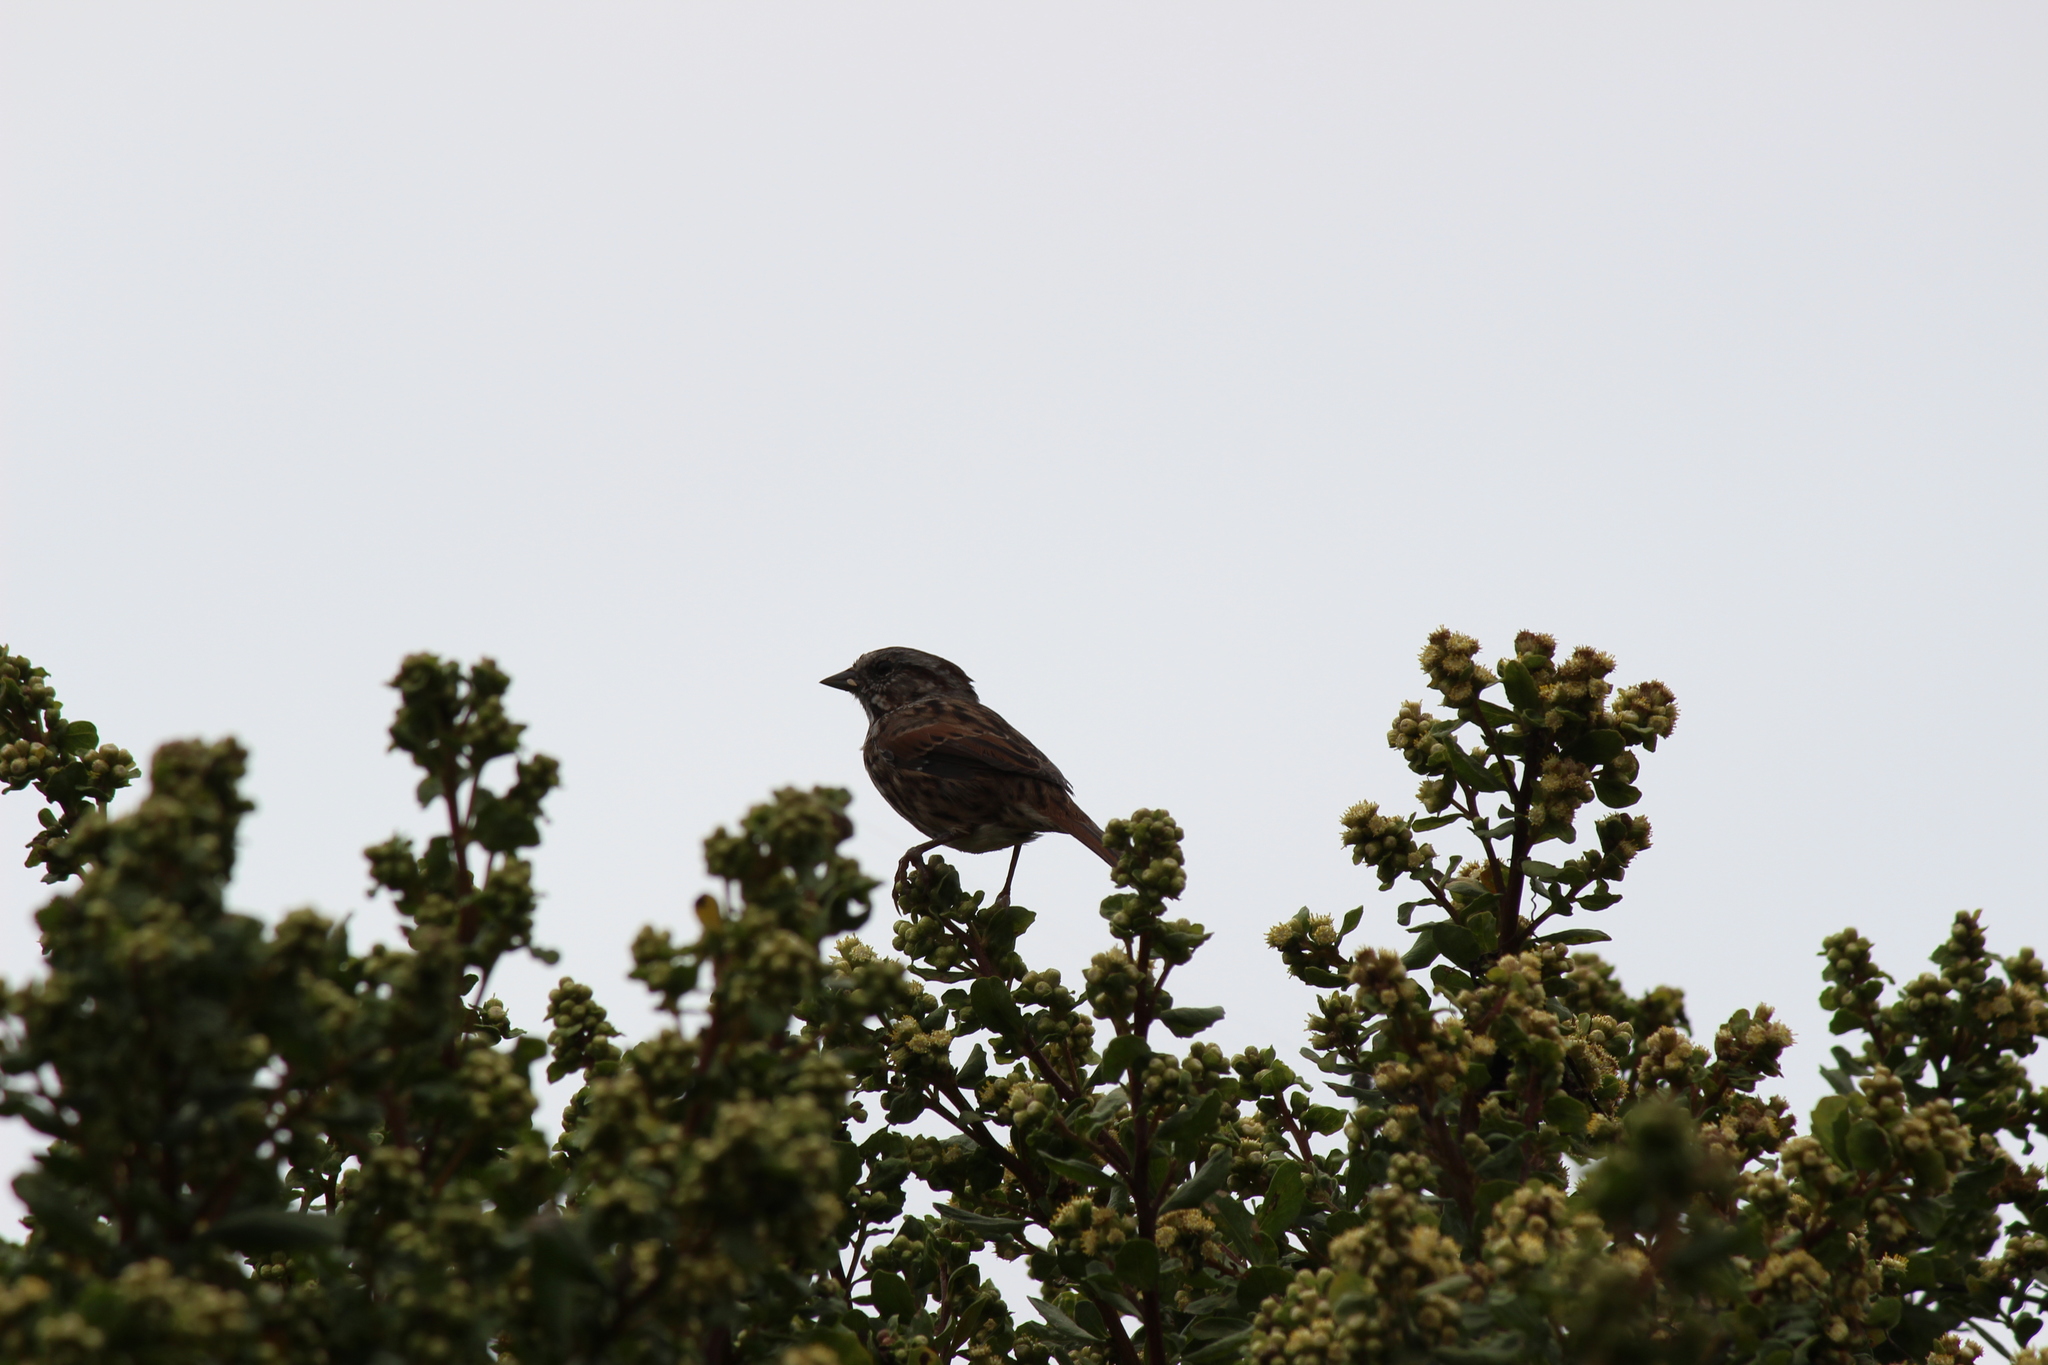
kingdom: Animalia
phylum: Chordata
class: Aves
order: Passeriformes
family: Passerellidae
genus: Melospiza
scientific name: Melospiza melodia
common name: Song sparrow
